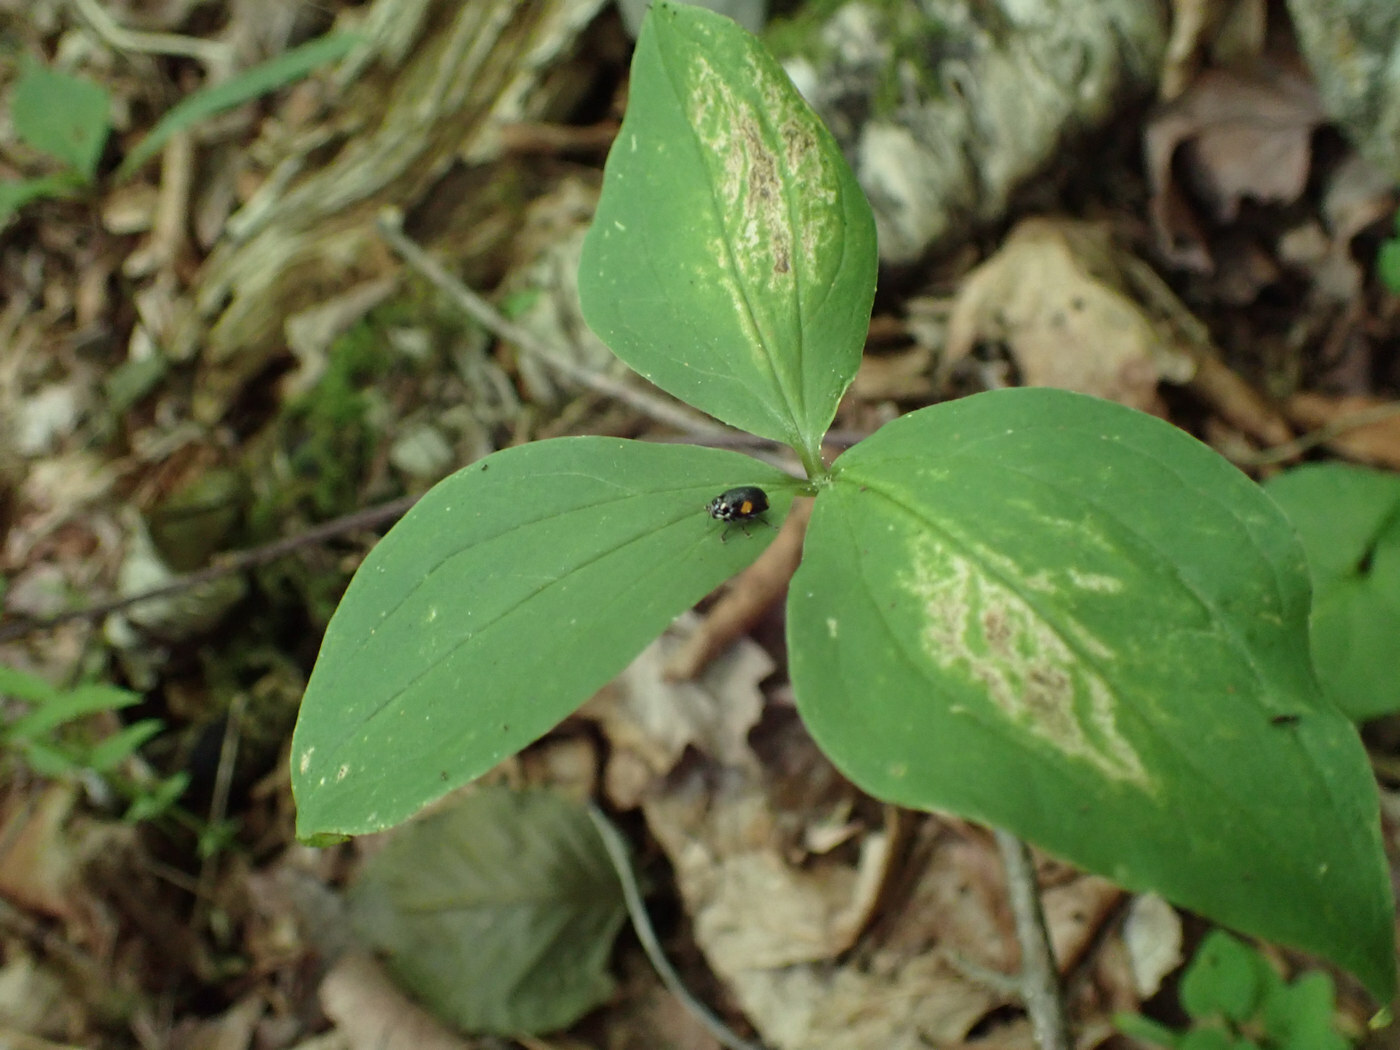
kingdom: Animalia
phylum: Arthropoda
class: Insecta
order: Coleoptera
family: Chrysomelidae
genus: Bassareus
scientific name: Bassareus mammifer
